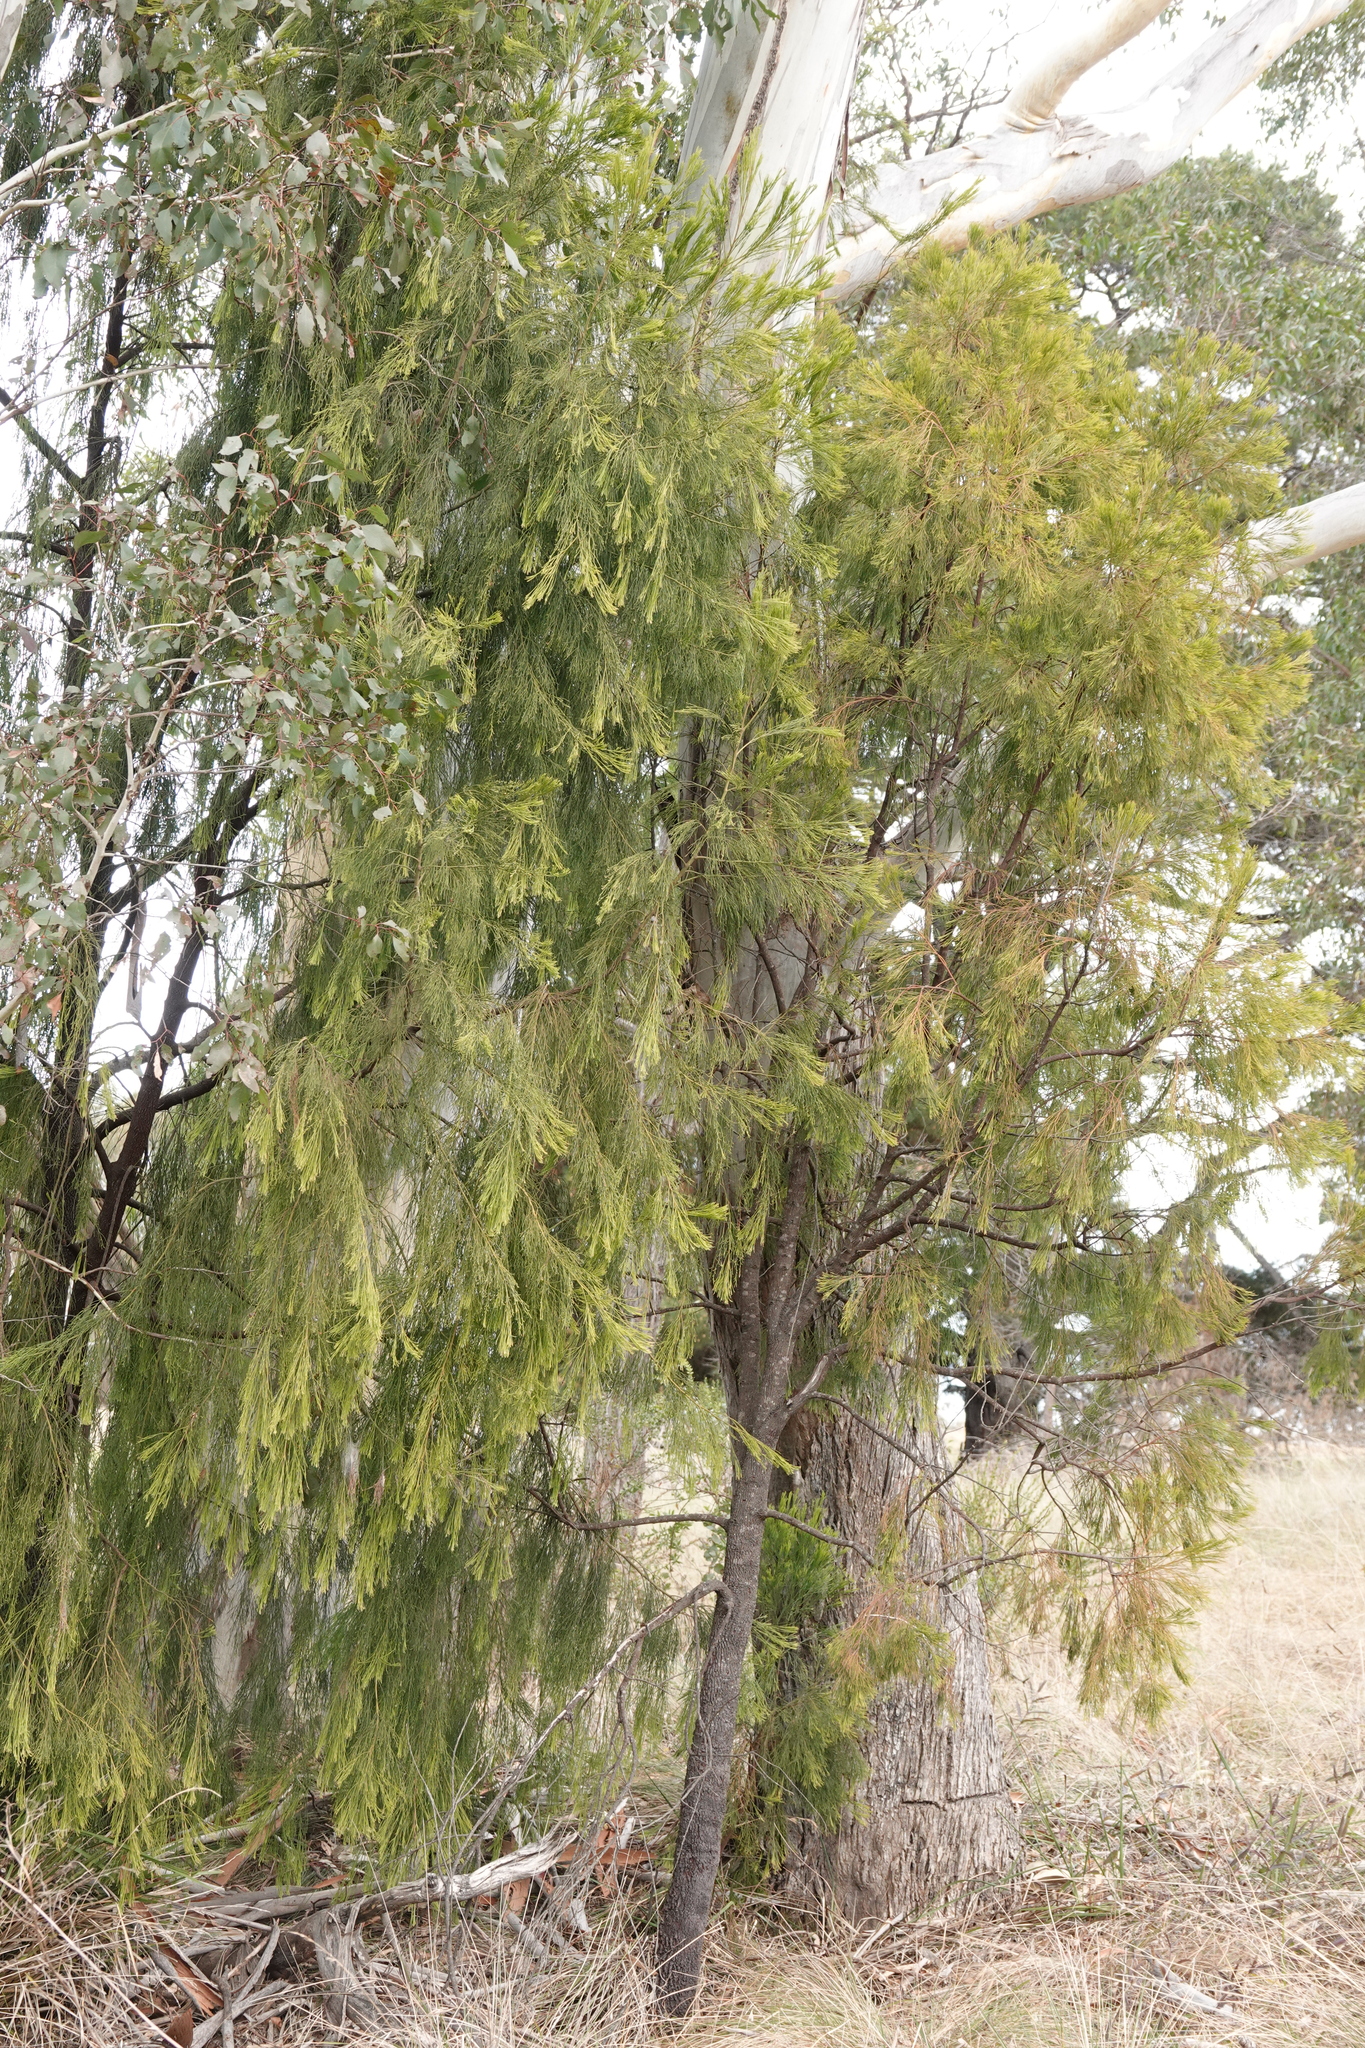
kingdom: Plantae
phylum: Tracheophyta
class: Magnoliopsida
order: Santalales
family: Santalaceae
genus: Exocarpos
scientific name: Exocarpos cupressiformis
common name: Cherry ballart
